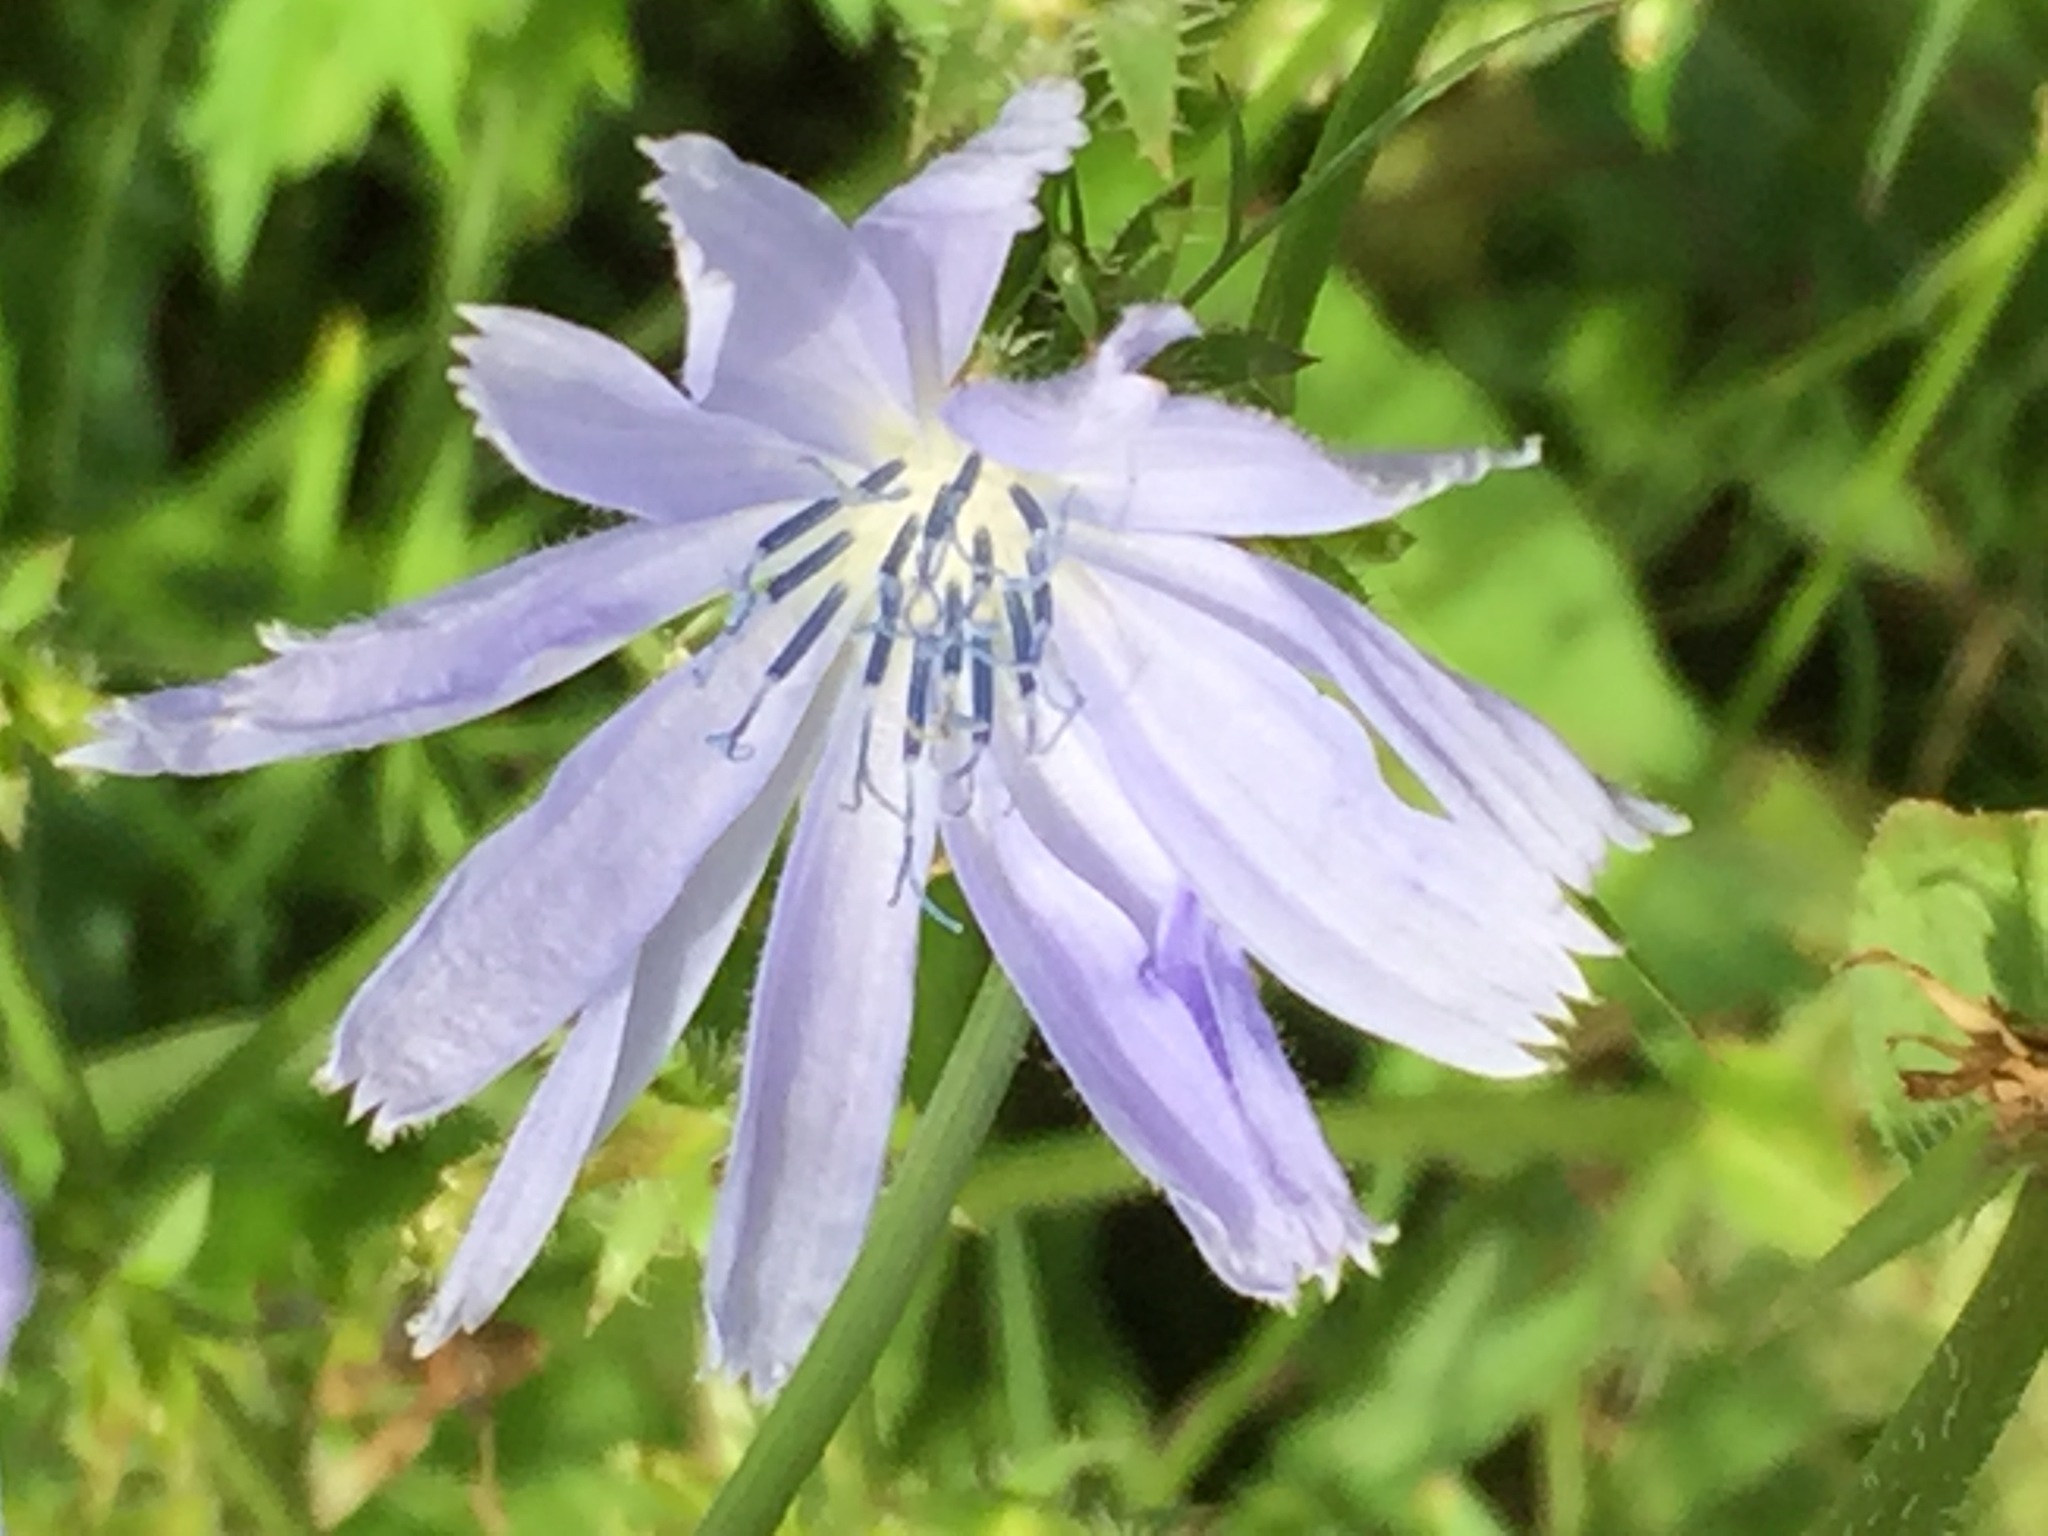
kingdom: Plantae
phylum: Tracheophyta
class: Magnoliopsida
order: Asterales
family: Asteraceae
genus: Cichorium
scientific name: Cichorium intybus
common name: Chicory
